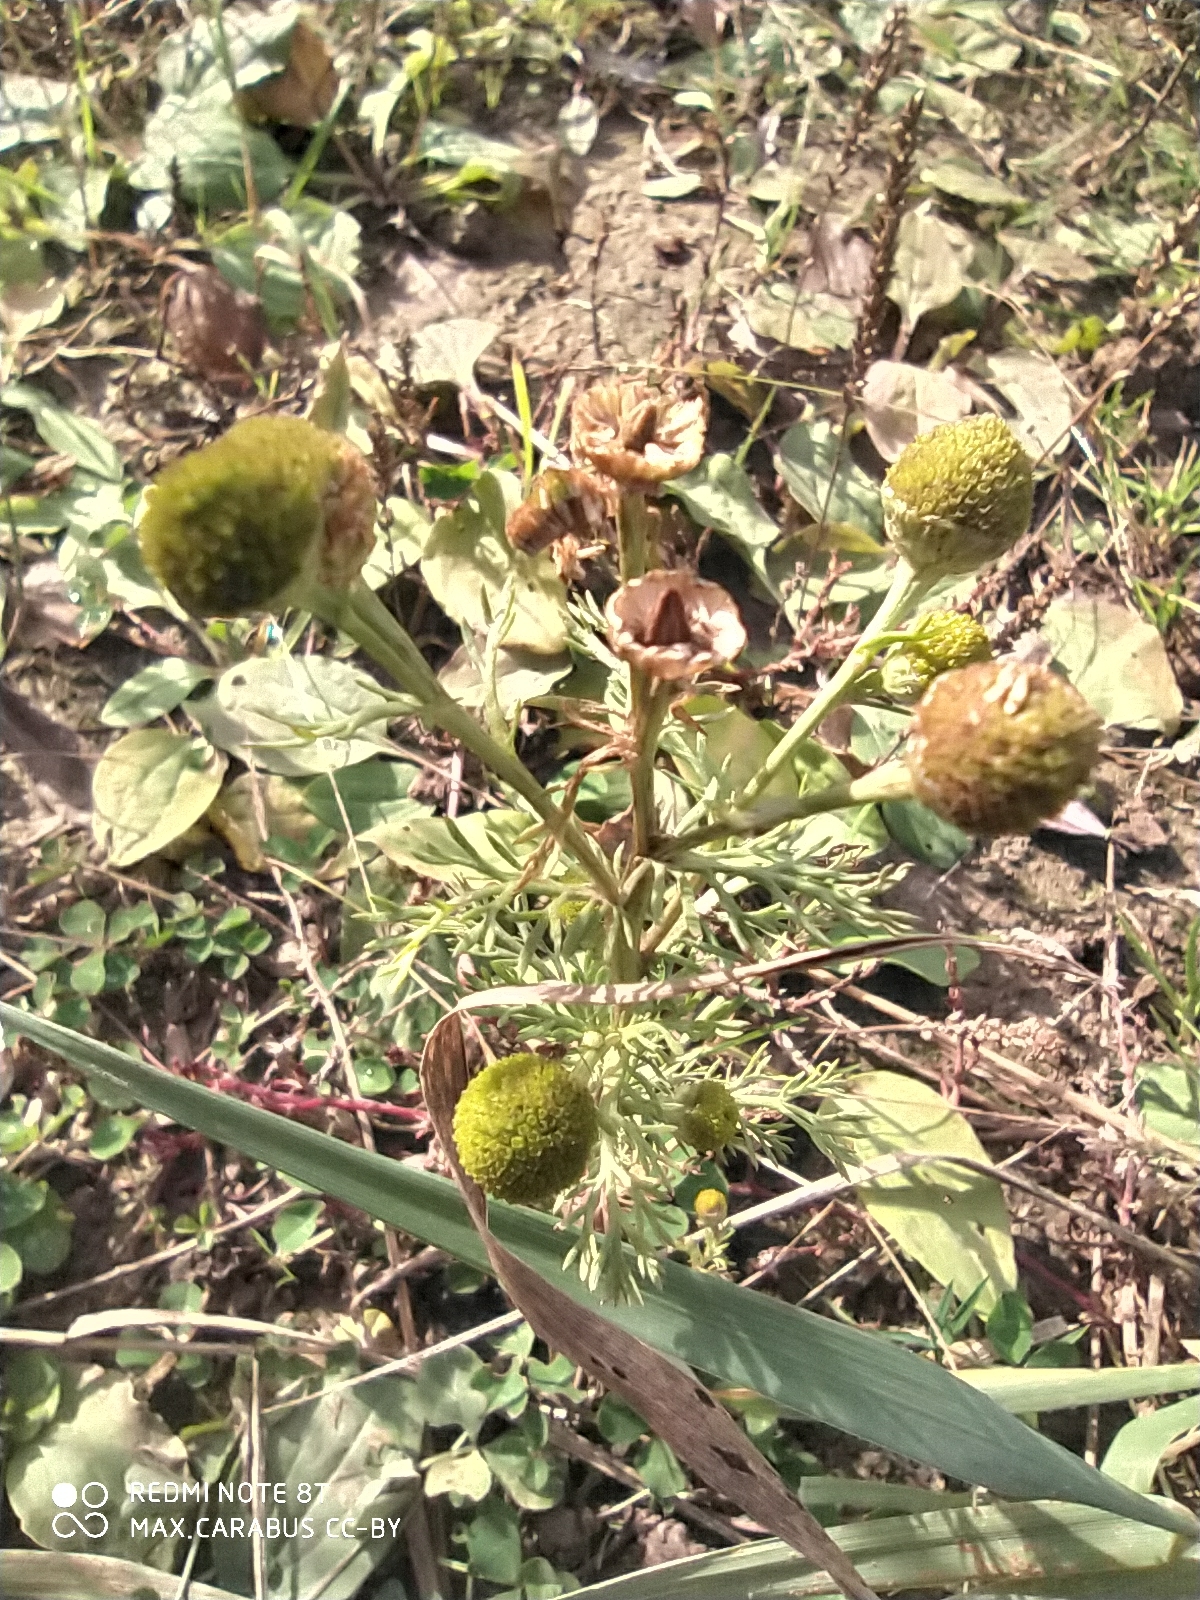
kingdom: Plantae
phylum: Tracheophyta
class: Magnoliopsida
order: Asterales
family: Asteraceae
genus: Matricaria
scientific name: Matricaria discoidea
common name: Disc mayweed
